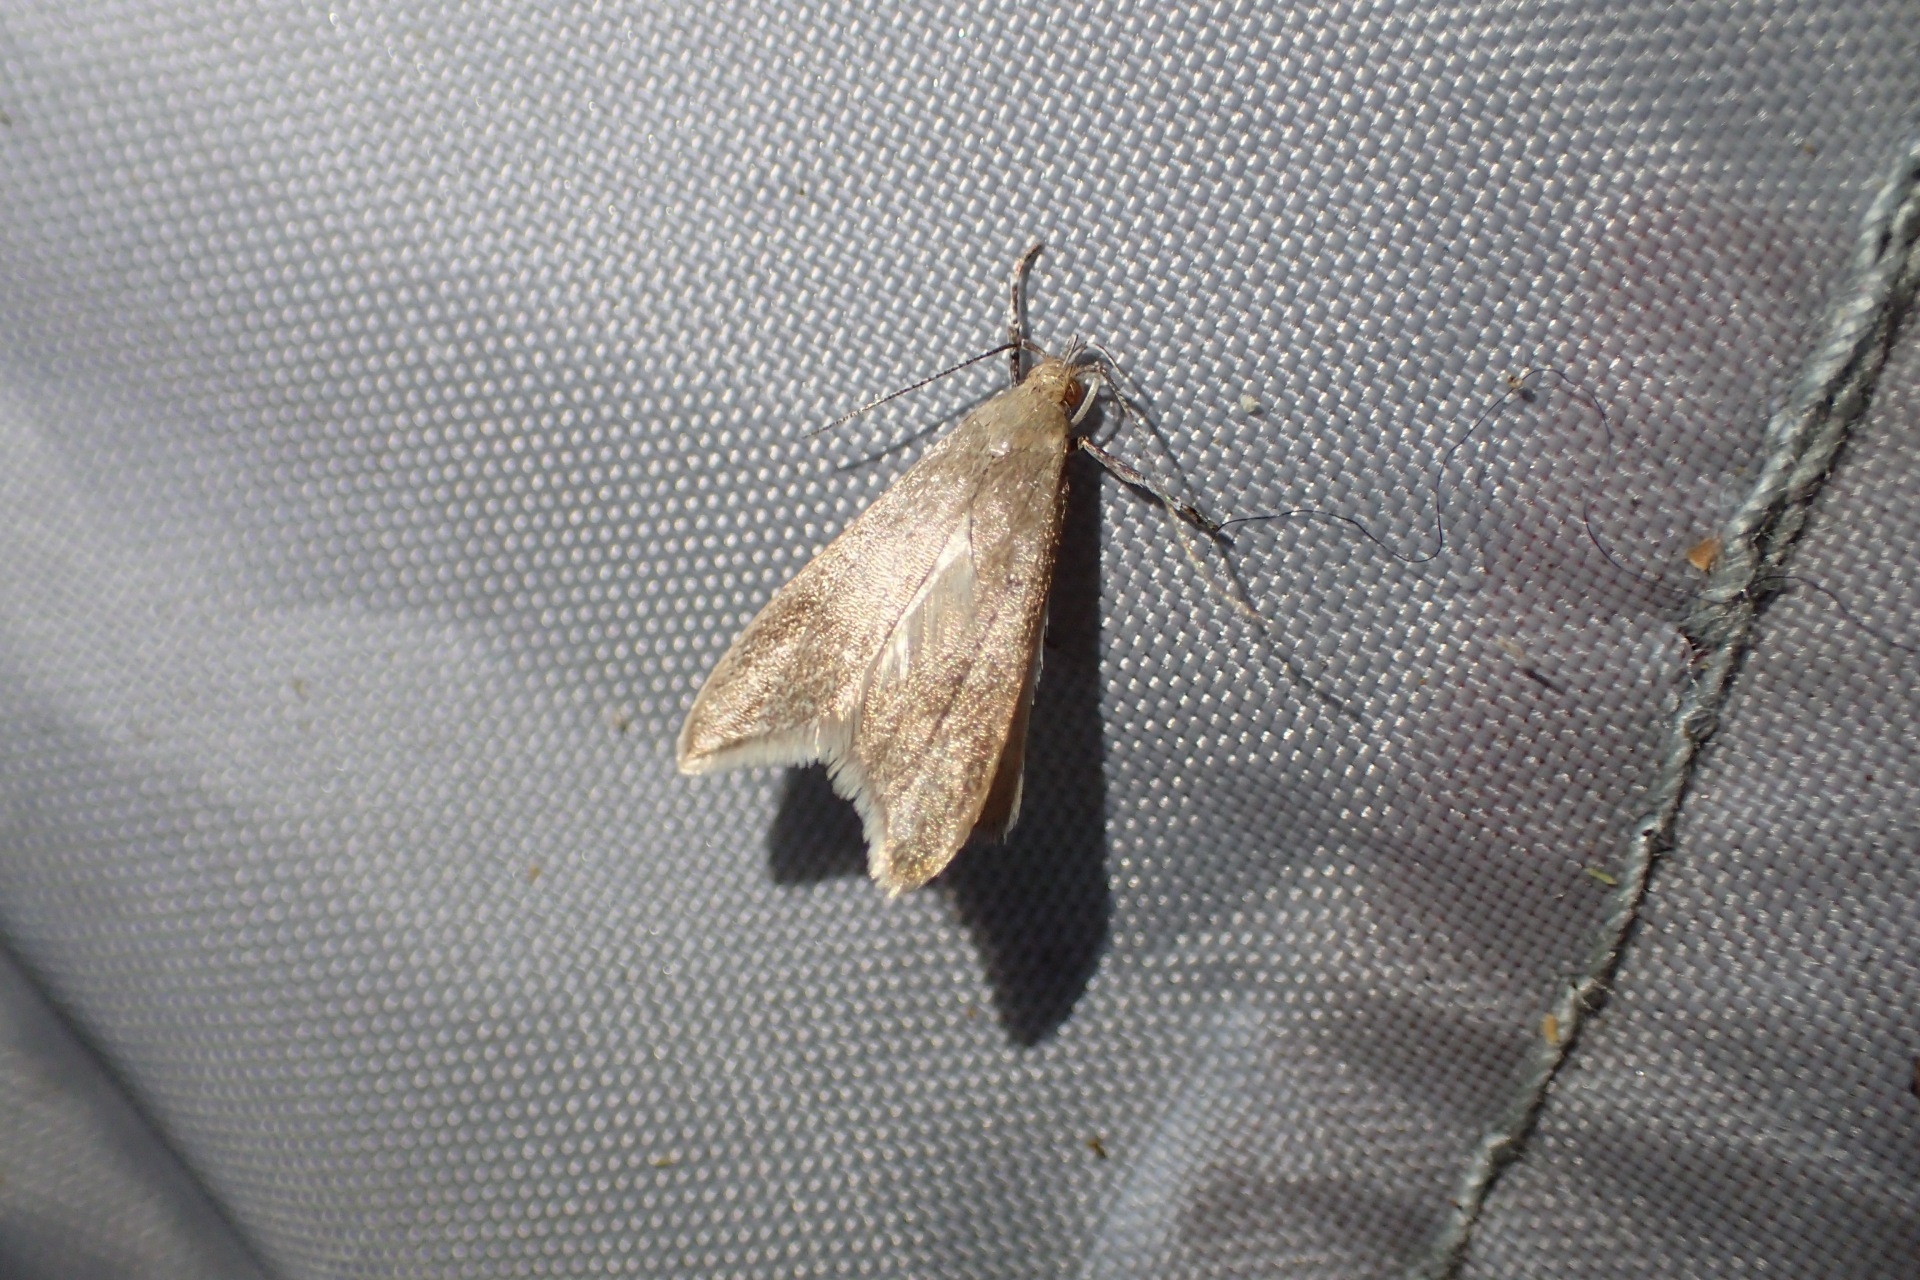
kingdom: Animalia
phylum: Arthropoda
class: Insecta
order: Lepidoptera
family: Oecophoridae
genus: Gymnobathra
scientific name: Gymnobathra hyetodes
